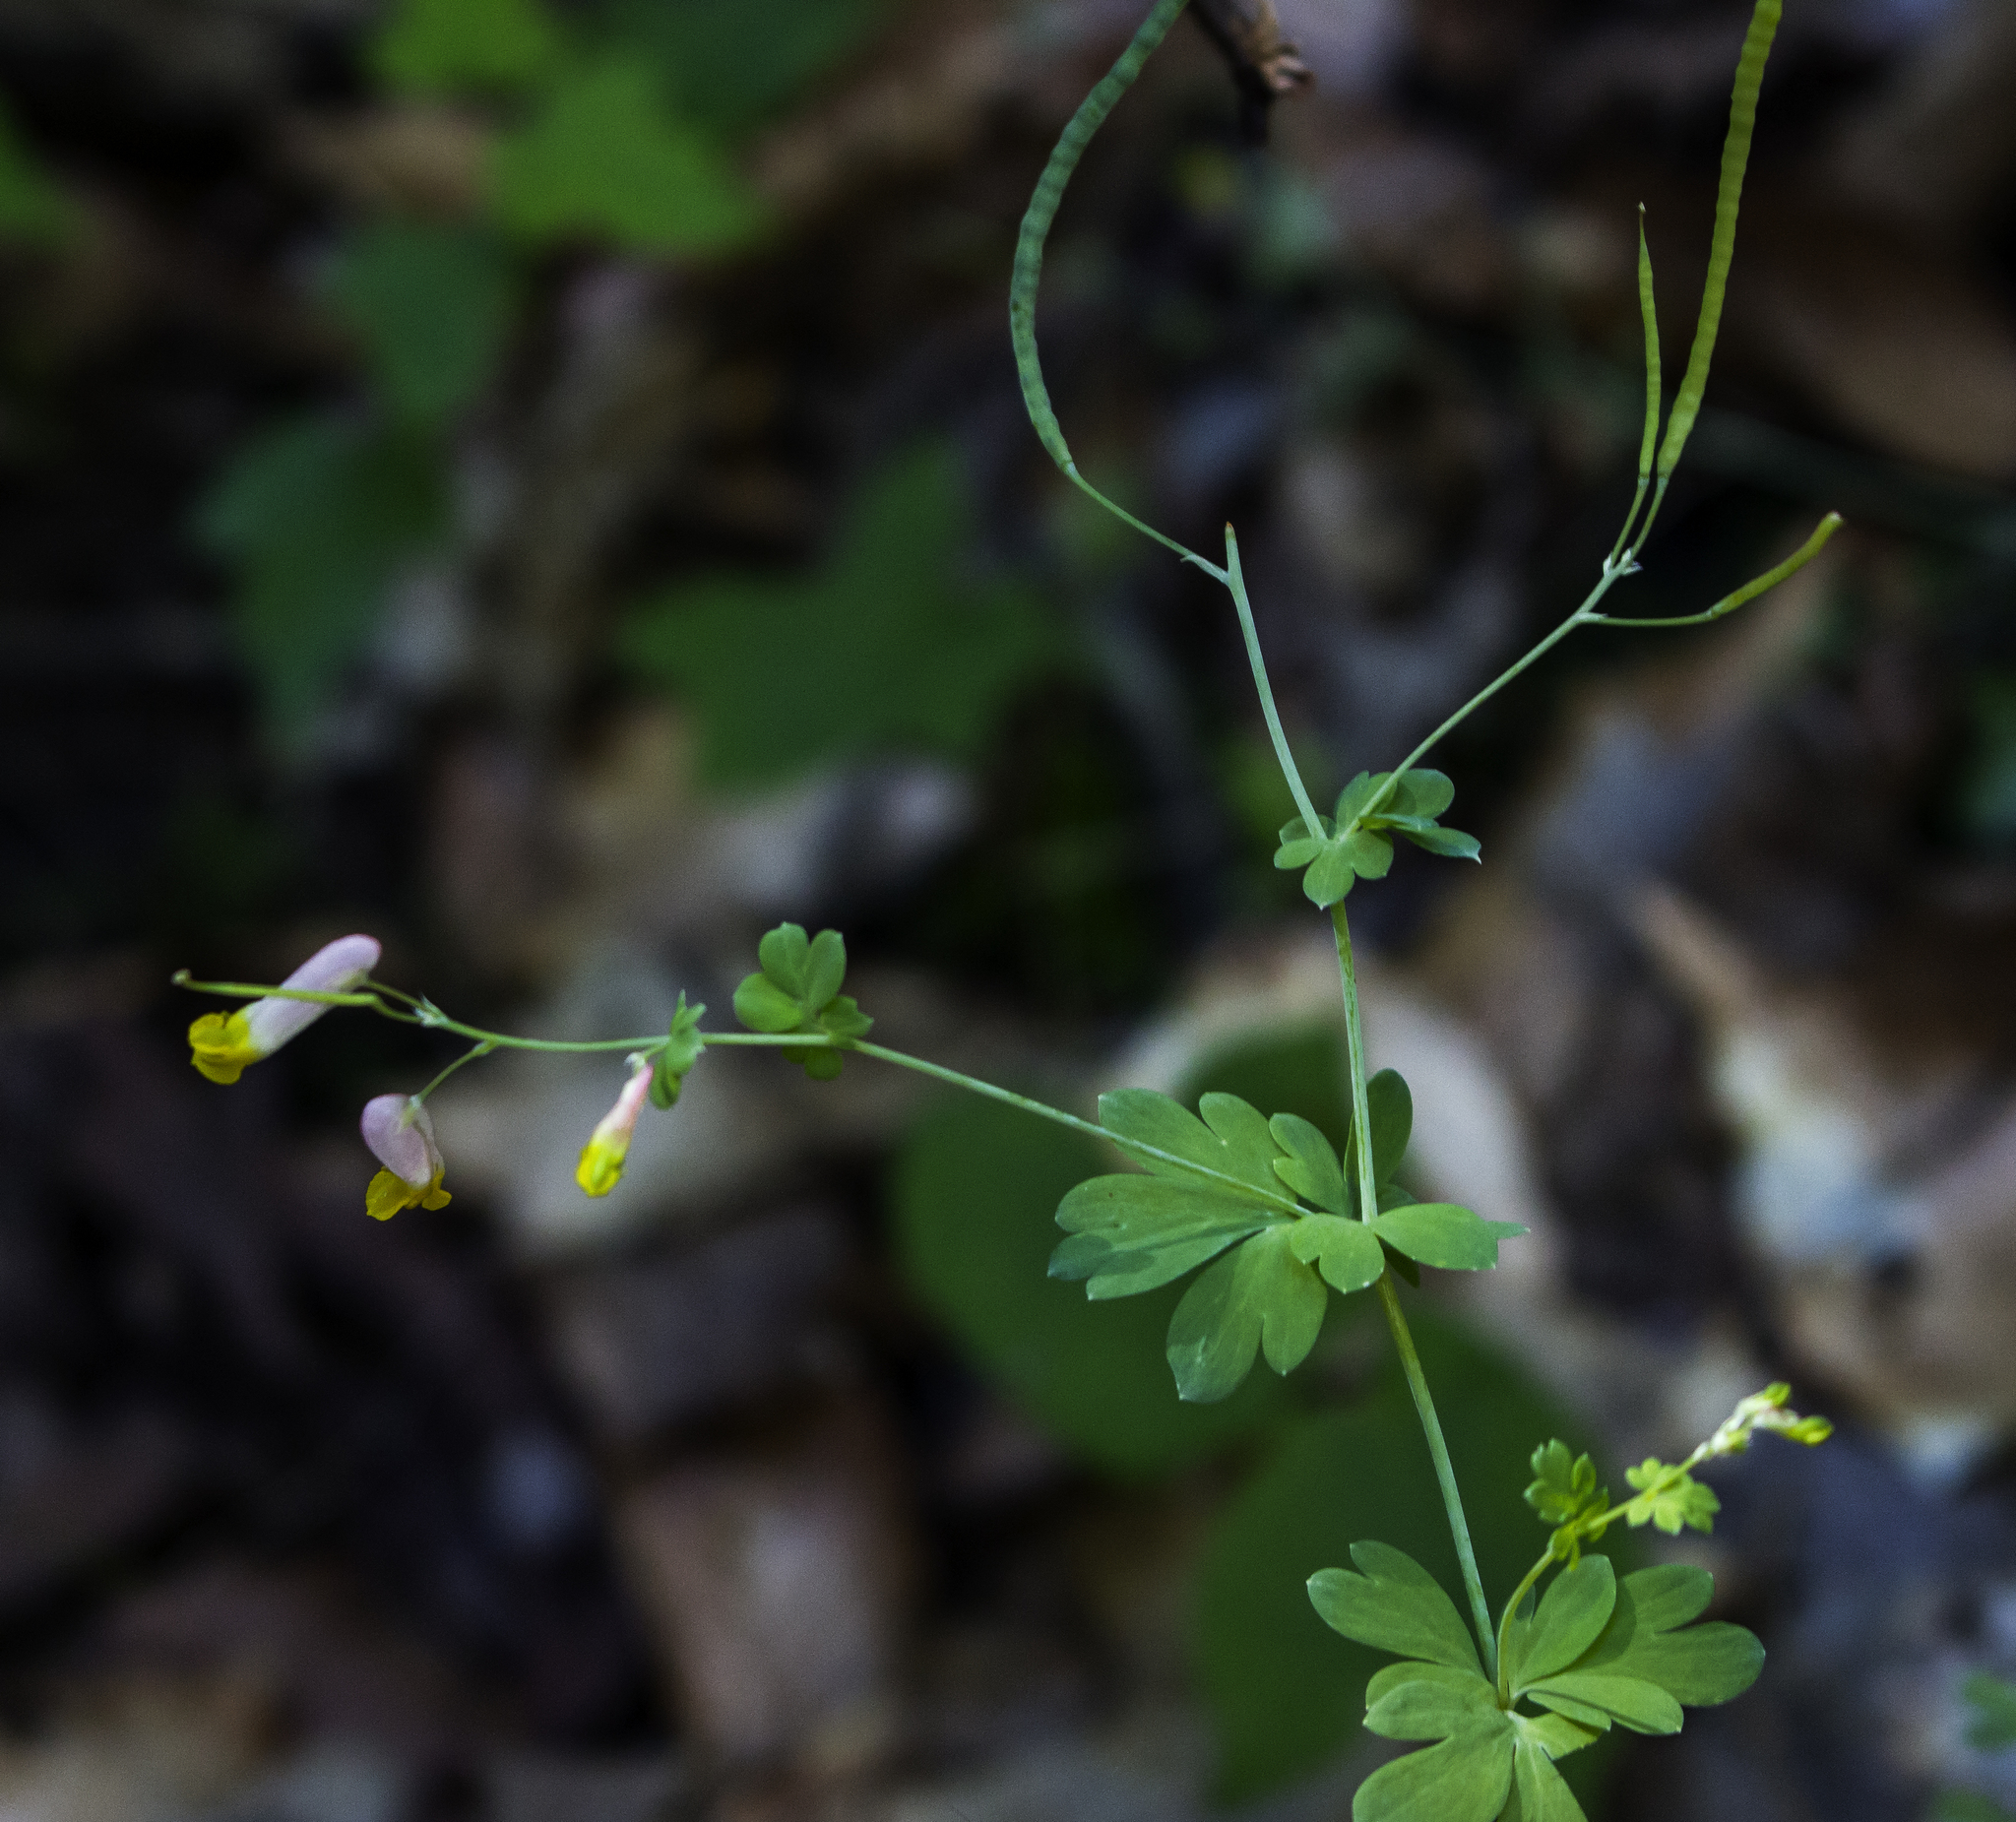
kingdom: Plantae
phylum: Tracheophyta
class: Magnoliopsida
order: Ranunculales
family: Papaveraceae
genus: Capnoides
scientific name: Capnoides sempervirens
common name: Rock harlequin
